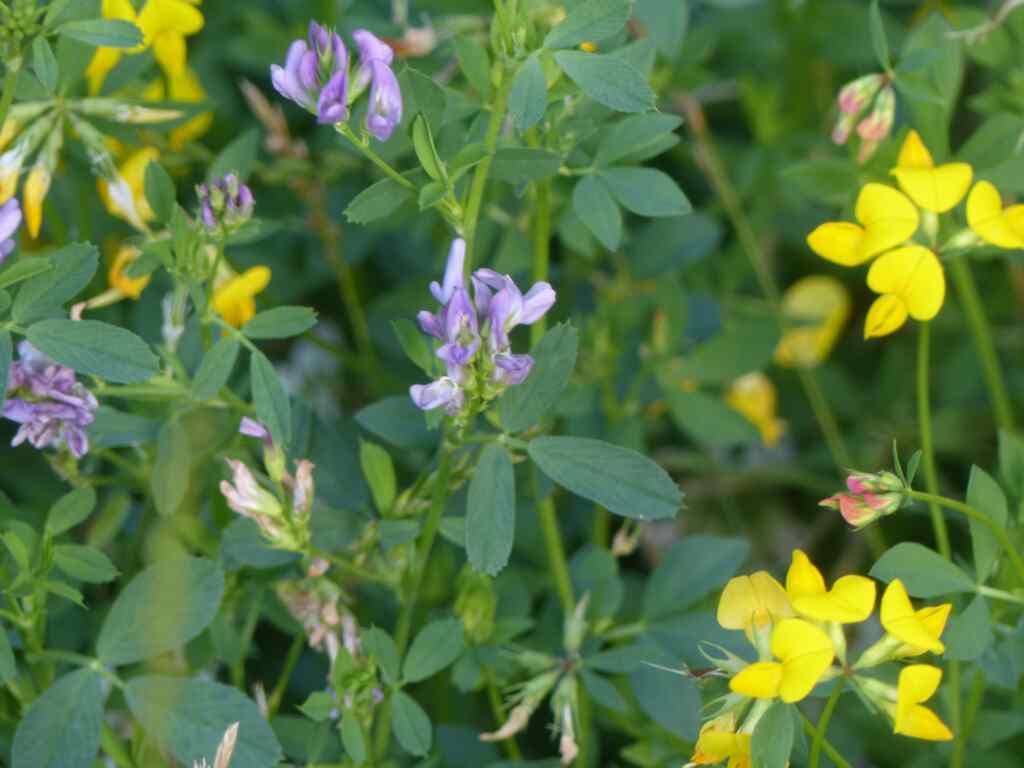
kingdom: Plantae
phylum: Tracheophyta
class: Magnoliopsida
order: Fabales
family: Fabaceae
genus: Medicago
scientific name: Medicago sativa
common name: Alfalfa
